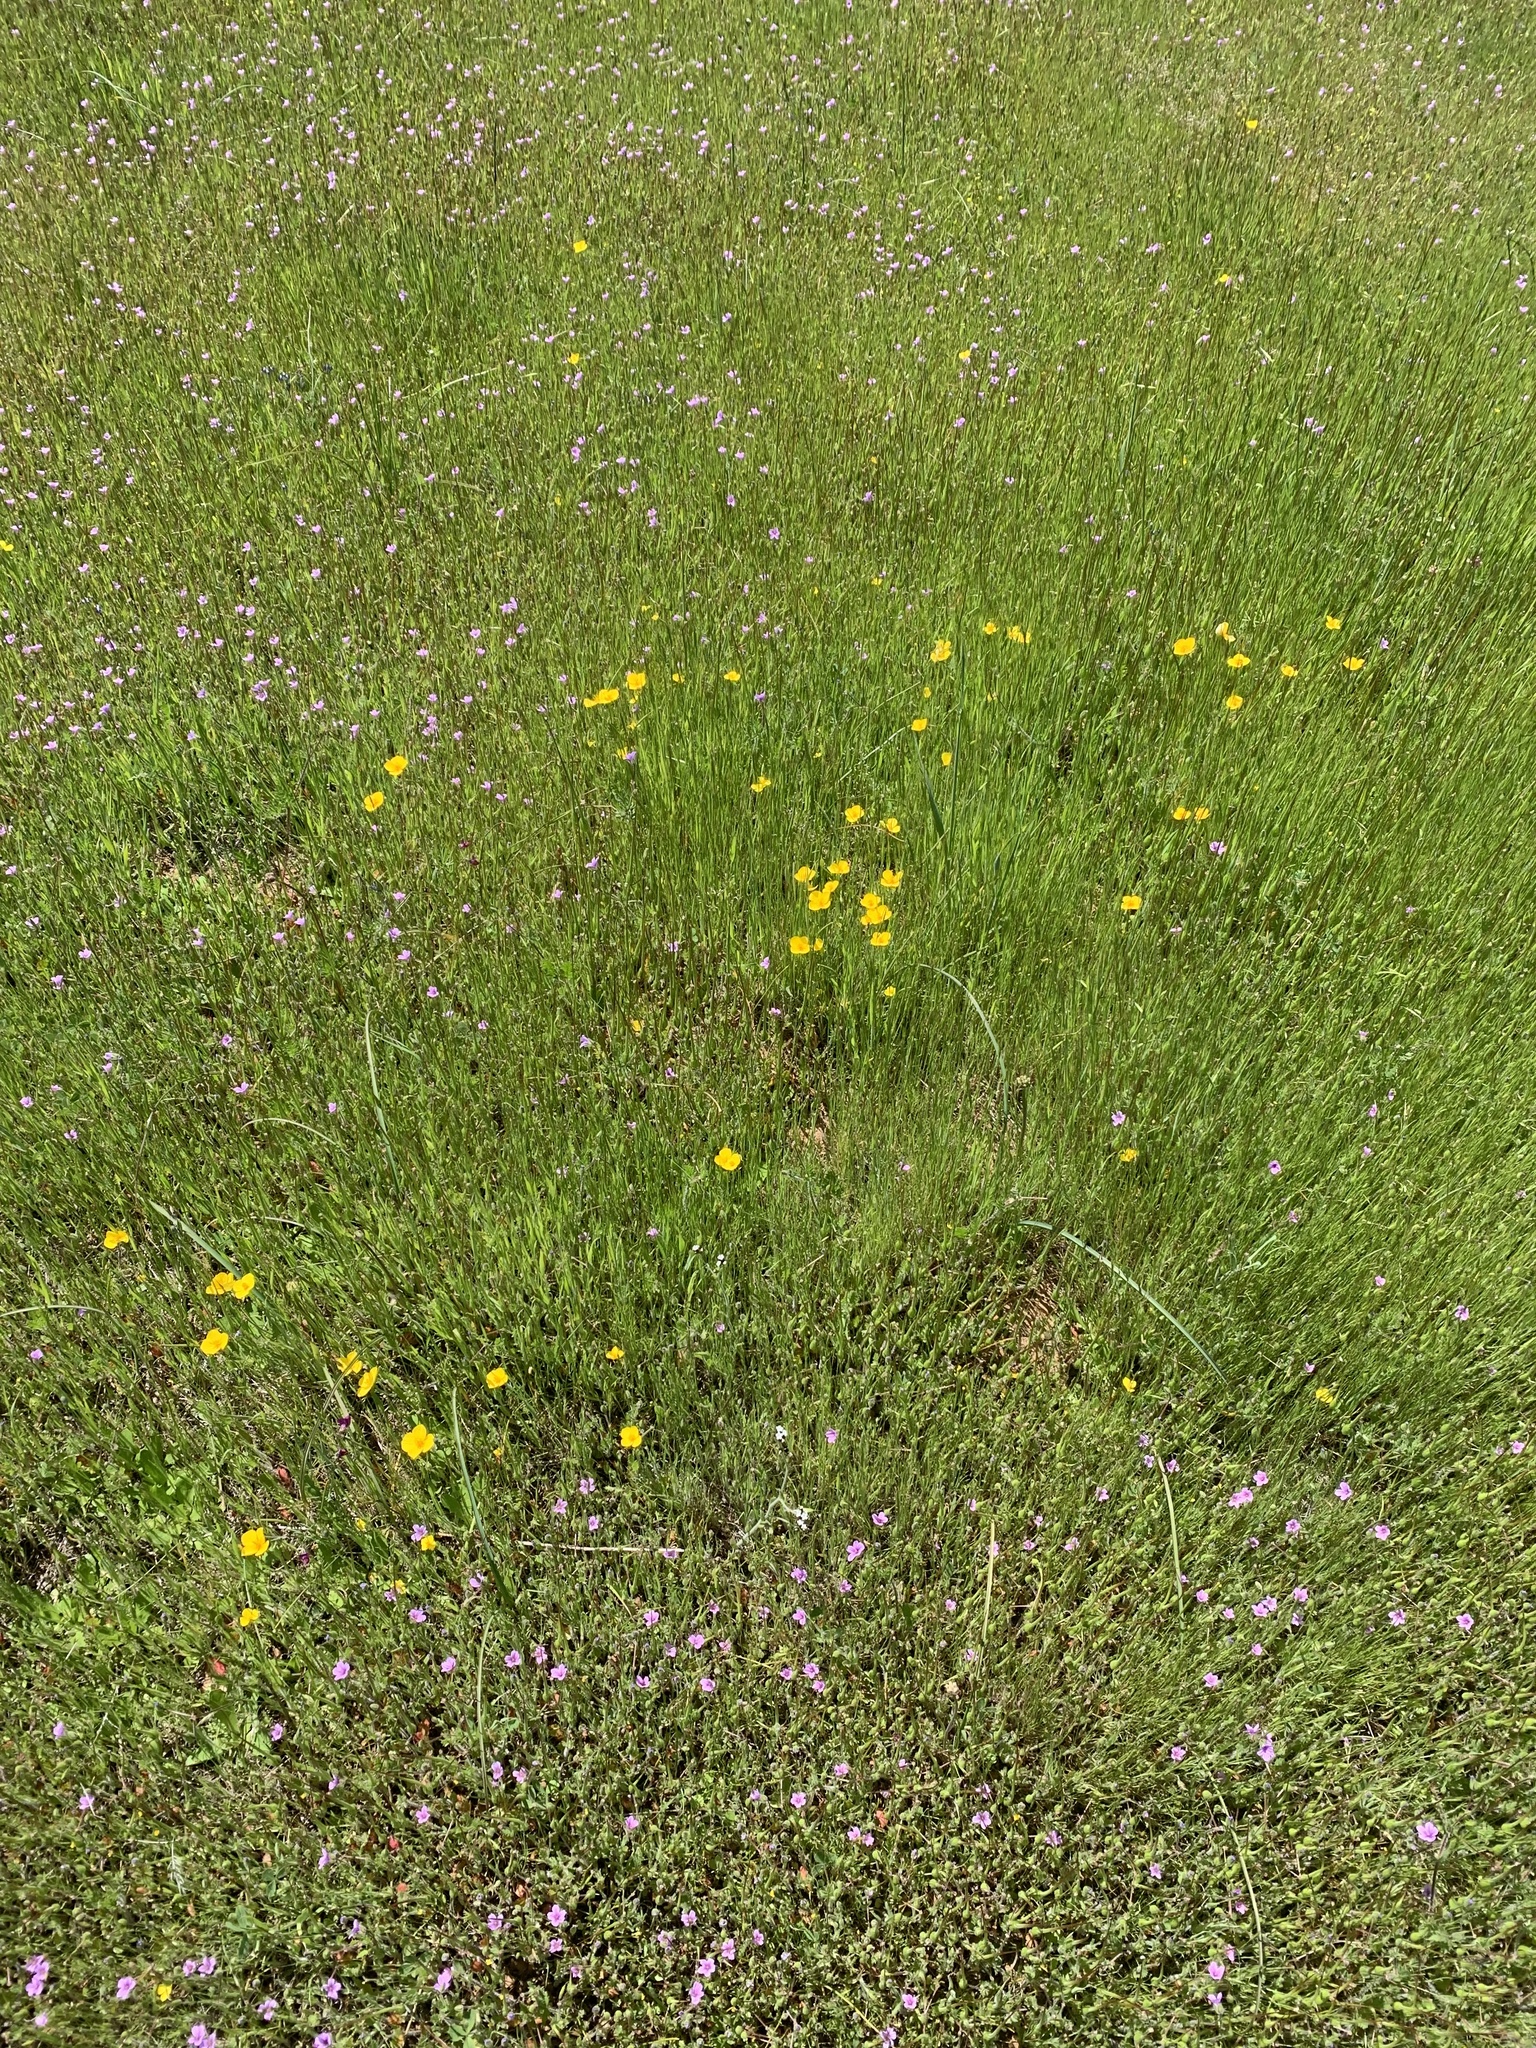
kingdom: Plantae
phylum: Tracheophyta
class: Magnoliopsida
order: Ranunculales
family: Papaveraceae
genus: Eschscholzia
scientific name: Eschscholzia lobbii
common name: Frying-pans
